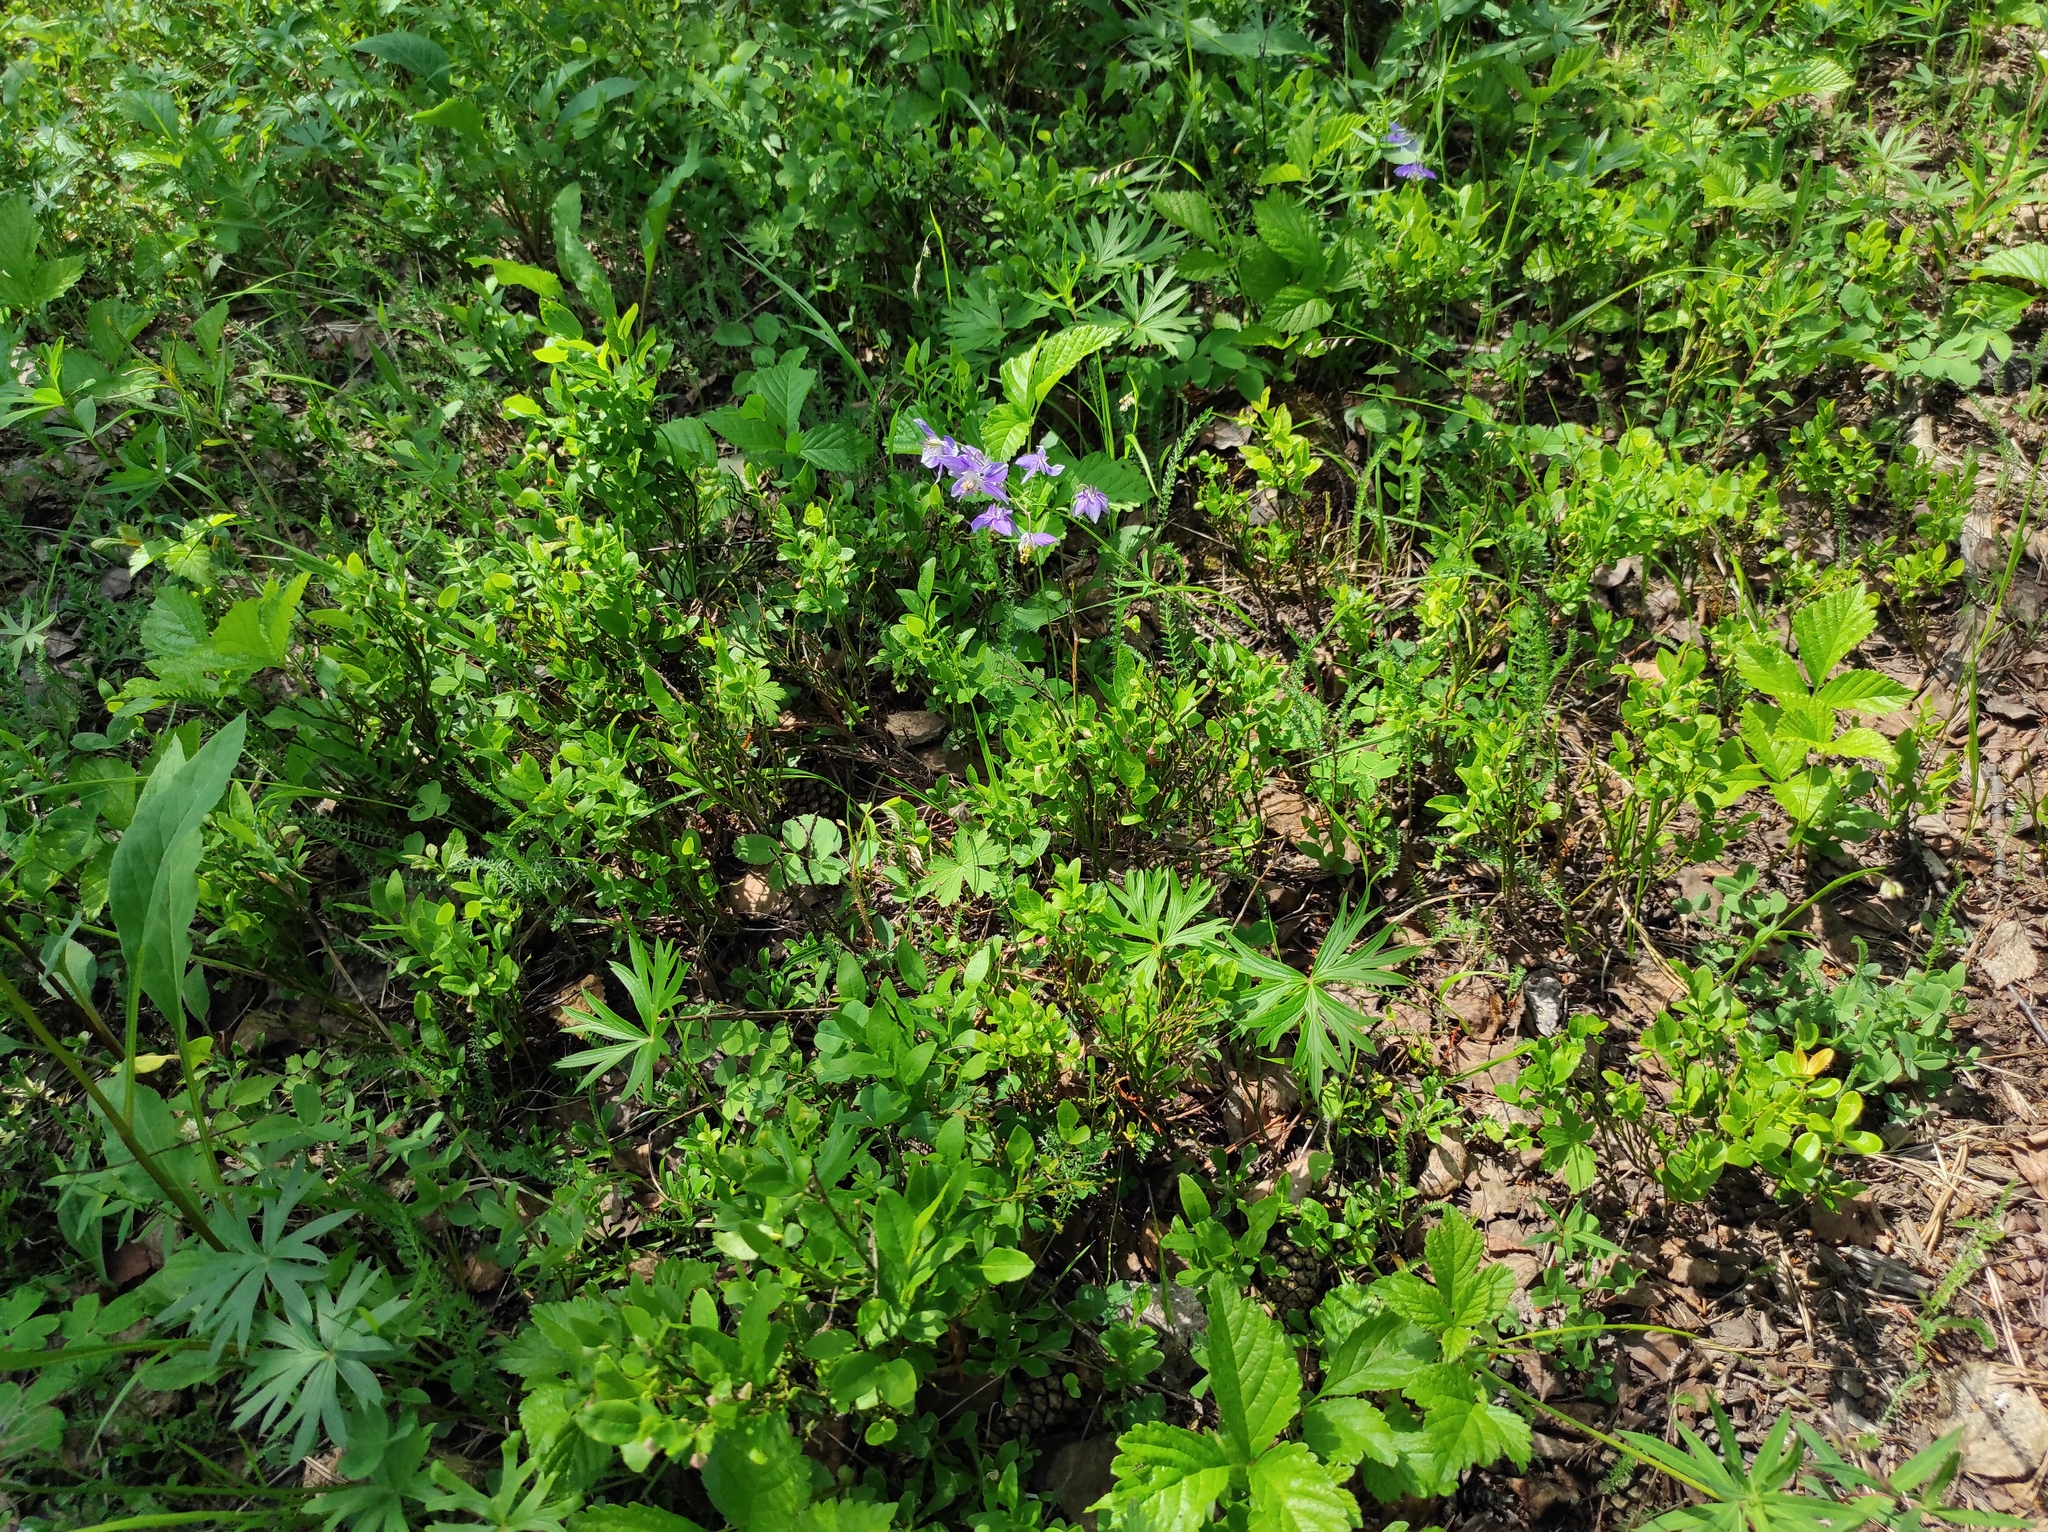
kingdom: Plantae
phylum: Tracheophyta
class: Magnoliopsida
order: Rosales
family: Rosaceae
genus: Rubus
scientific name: Rubus saxatilis
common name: Stone bramble
